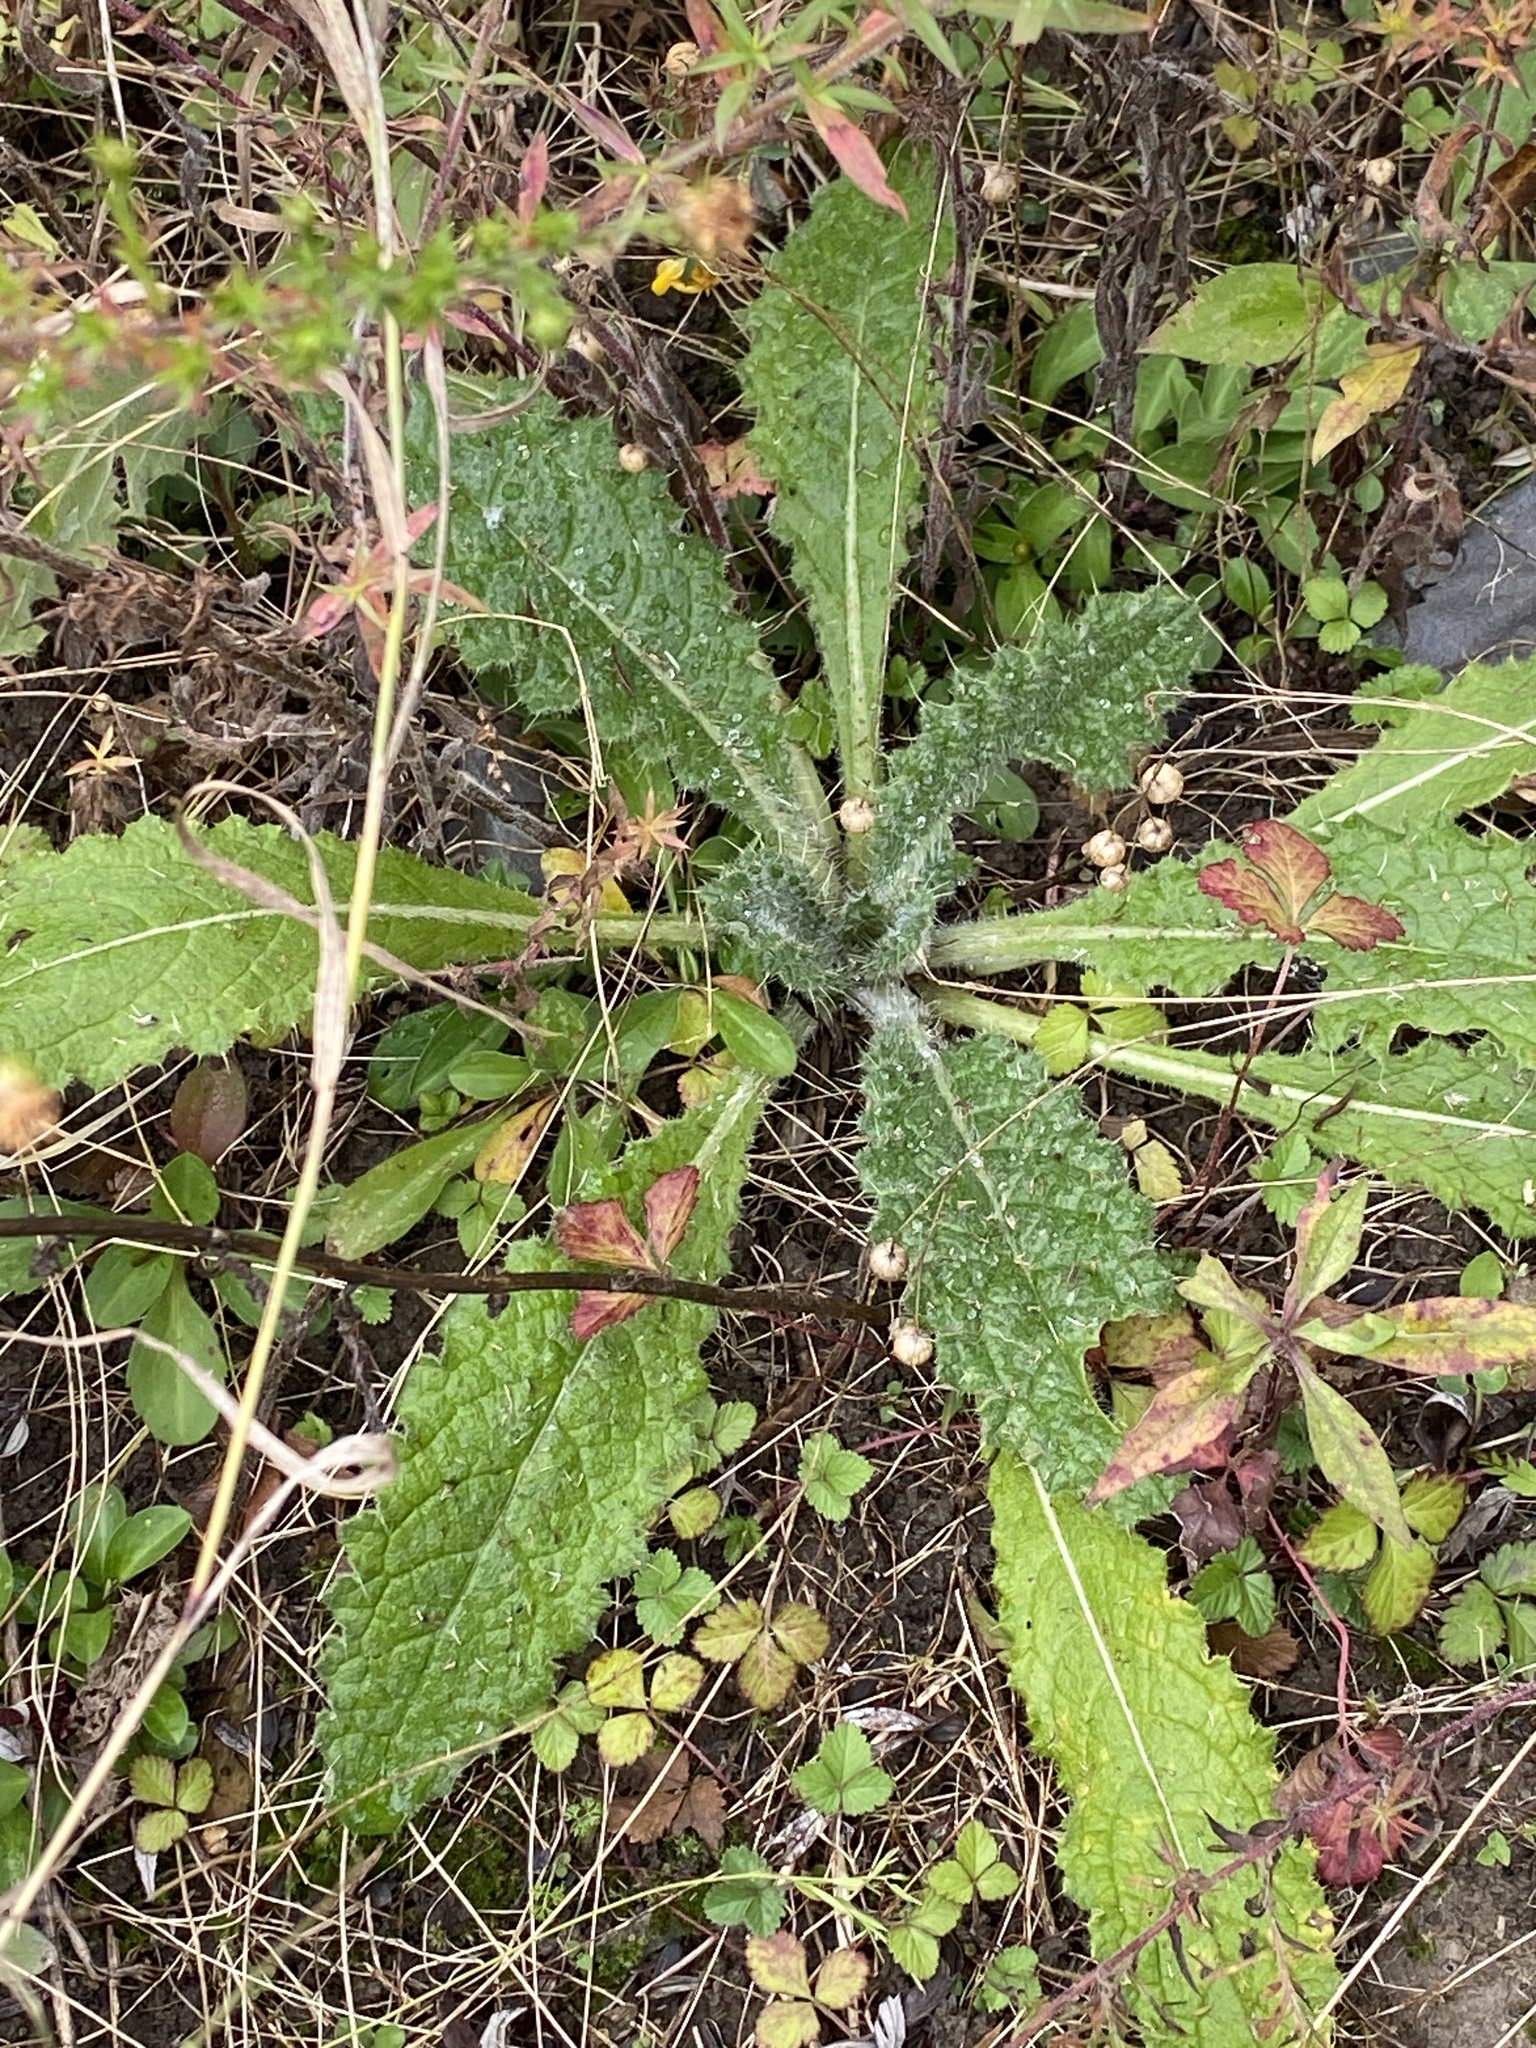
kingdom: Plantae
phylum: Tracheophyta
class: Magnoliopsida
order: Asterales
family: Asteraceae
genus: Cirsium
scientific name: Cirsium vulgare
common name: Bull thistle
